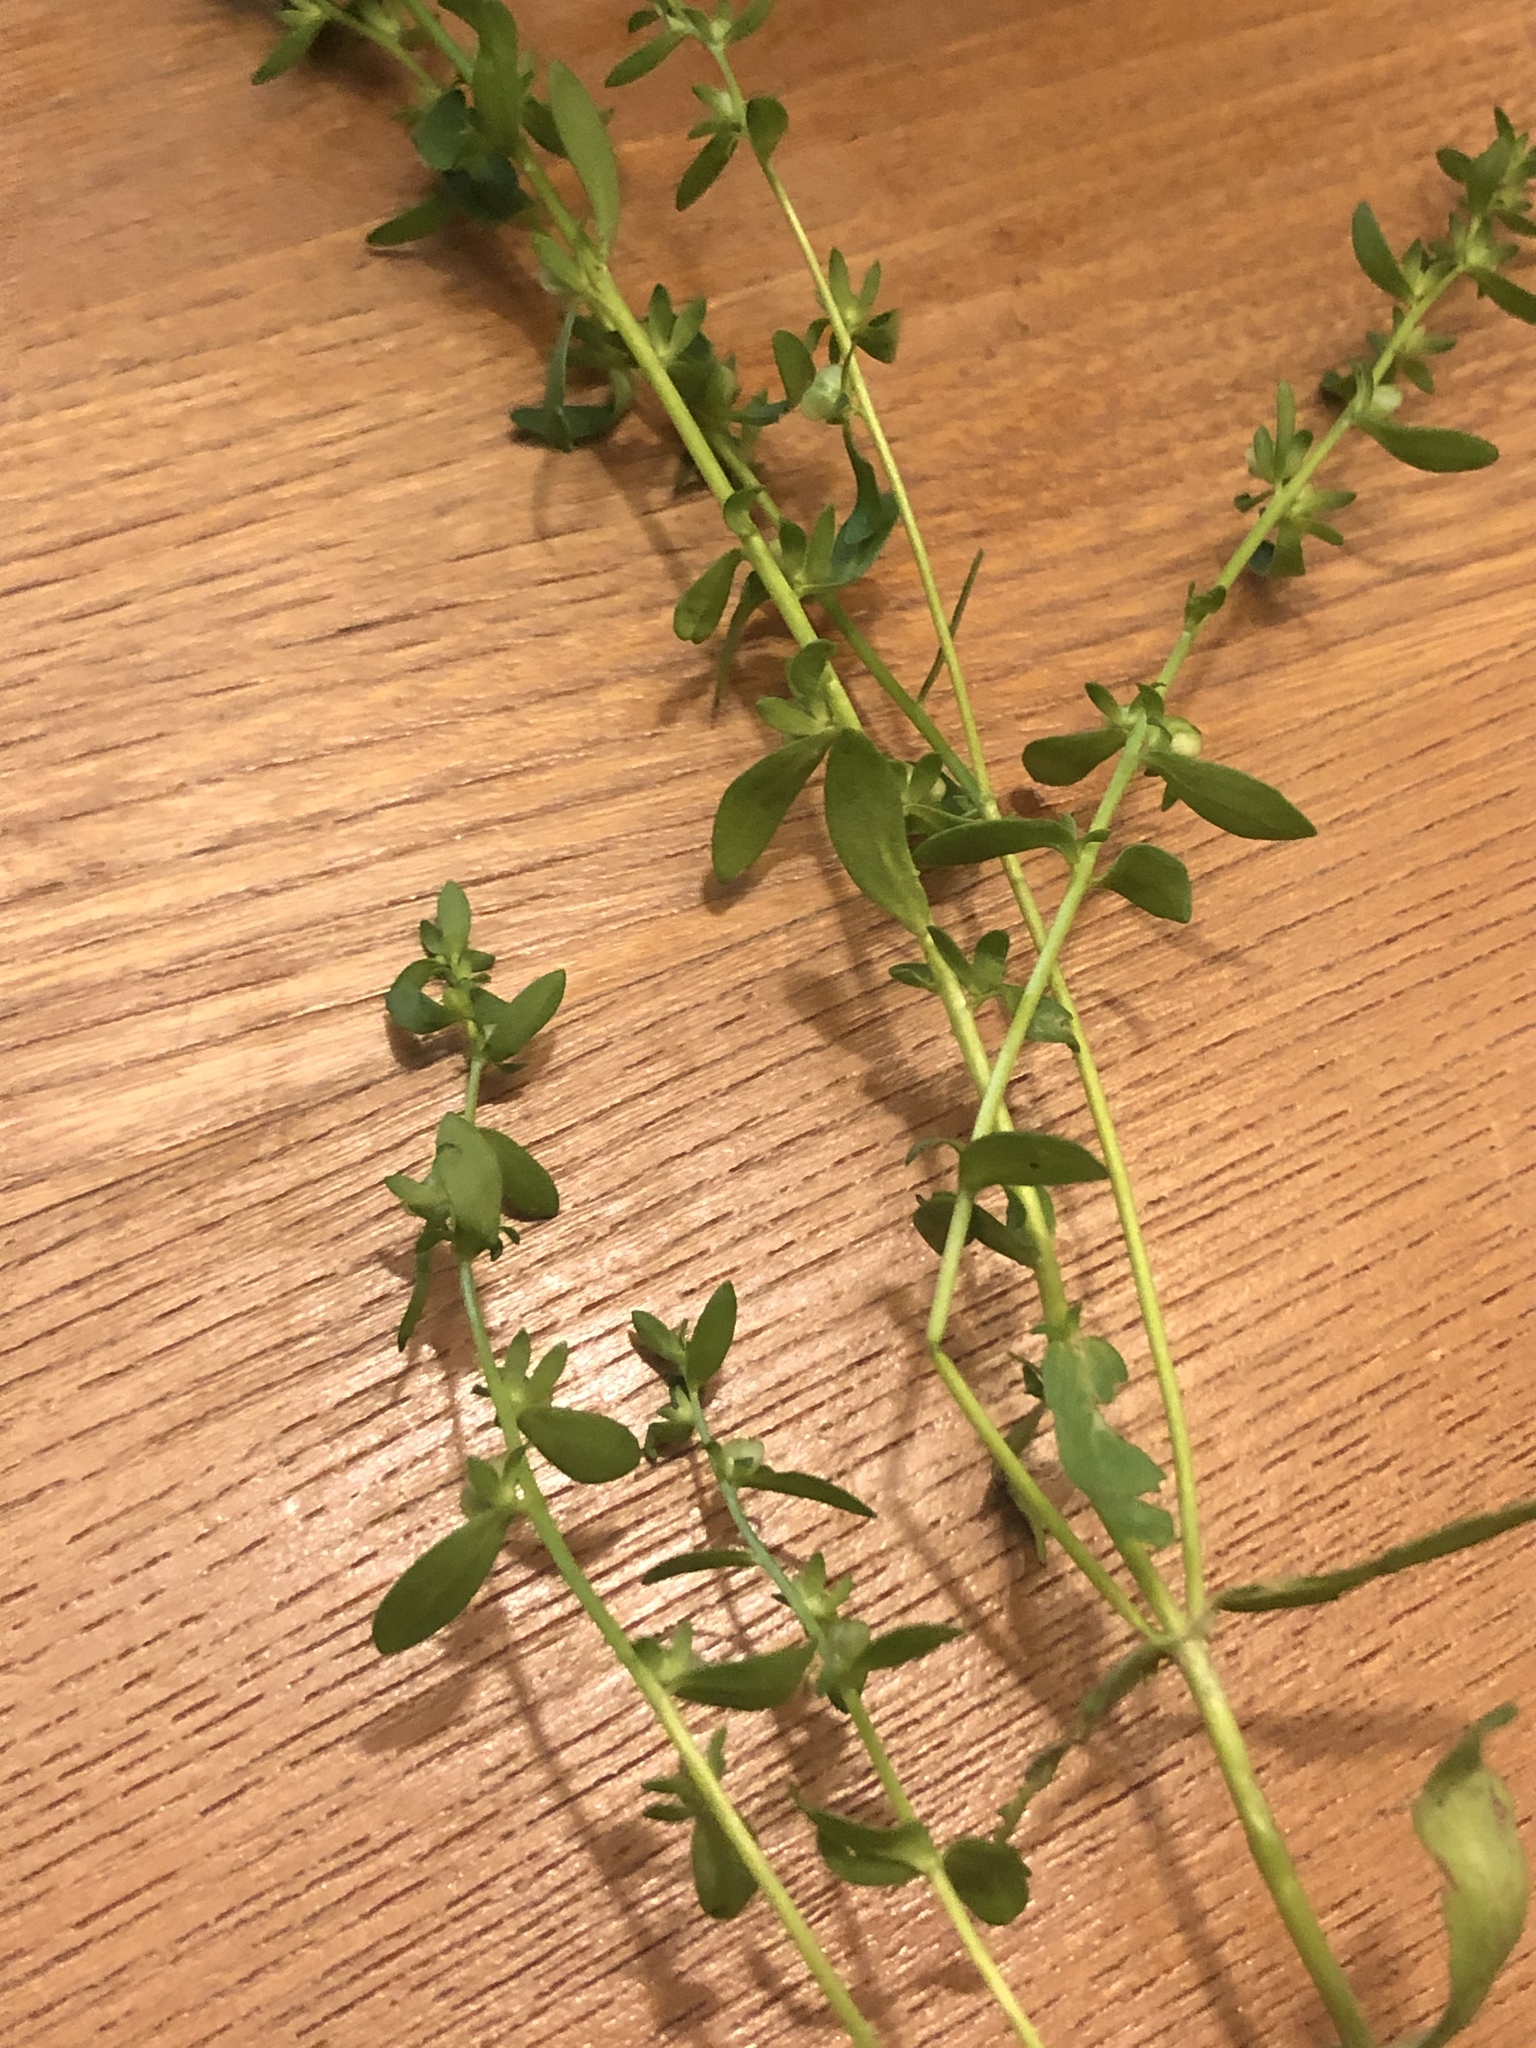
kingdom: Plantae
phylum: Tracheophyta
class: Magnoliopsida
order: Lamiales
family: Plantaginaceae
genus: Veronica
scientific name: Veronica peregrina
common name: Neckweed
